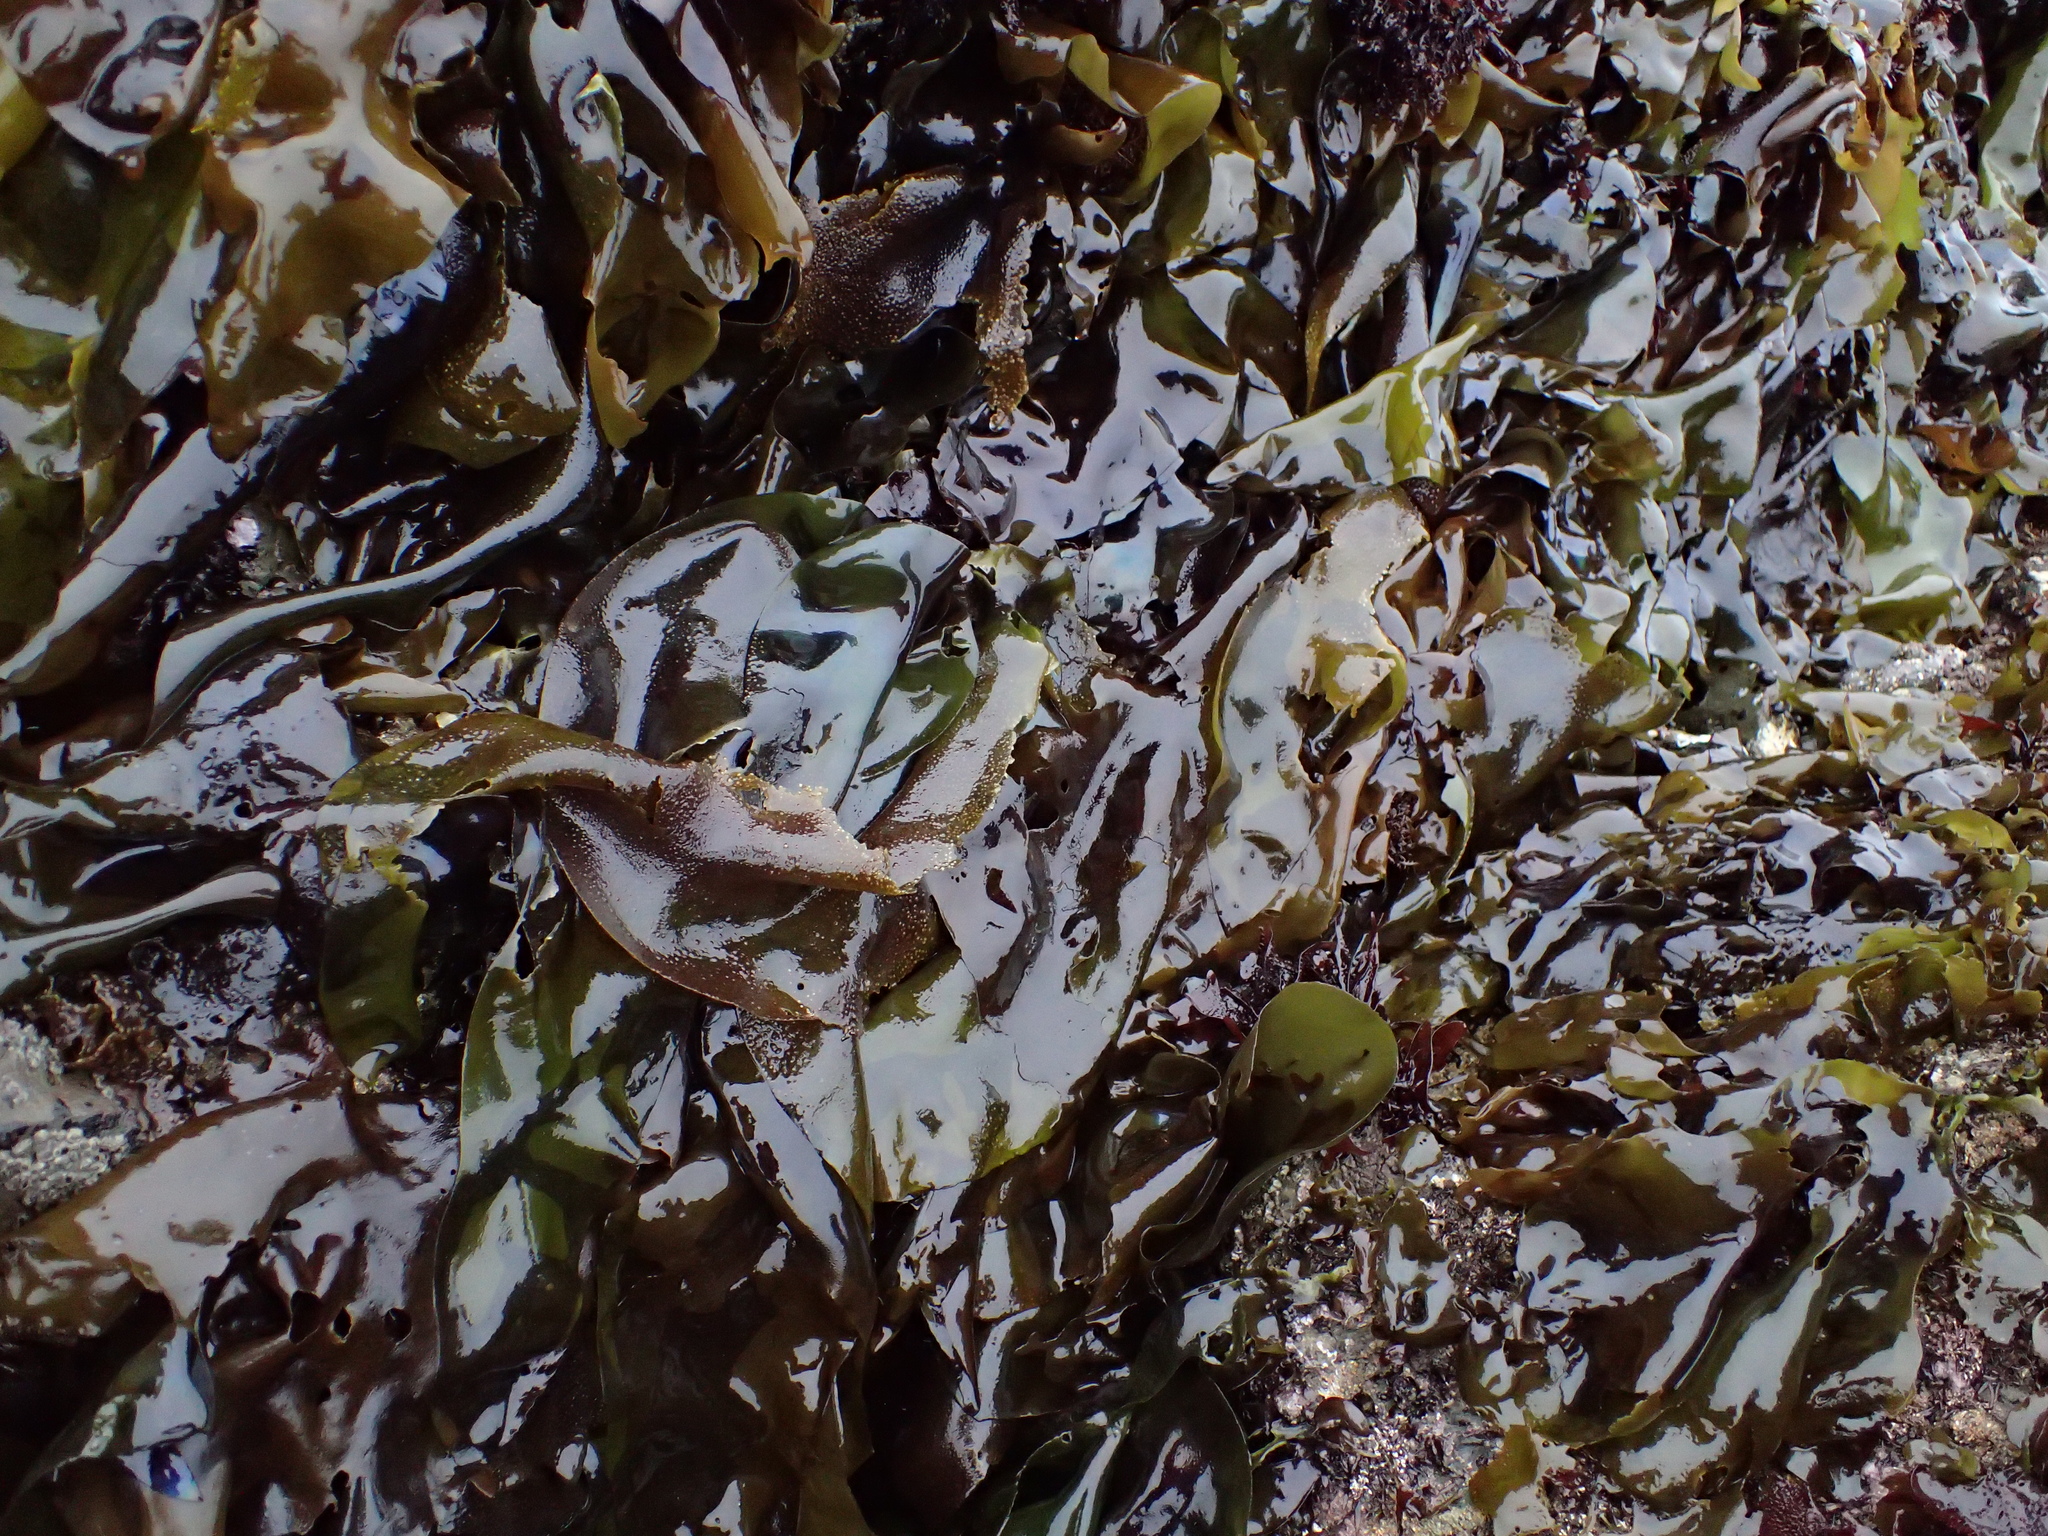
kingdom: Plantae
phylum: Rhodophyta
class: Florideophyceae
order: Gigartinales
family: Gigartinaceae
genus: Mazzaella
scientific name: Mazzaella flaccida
